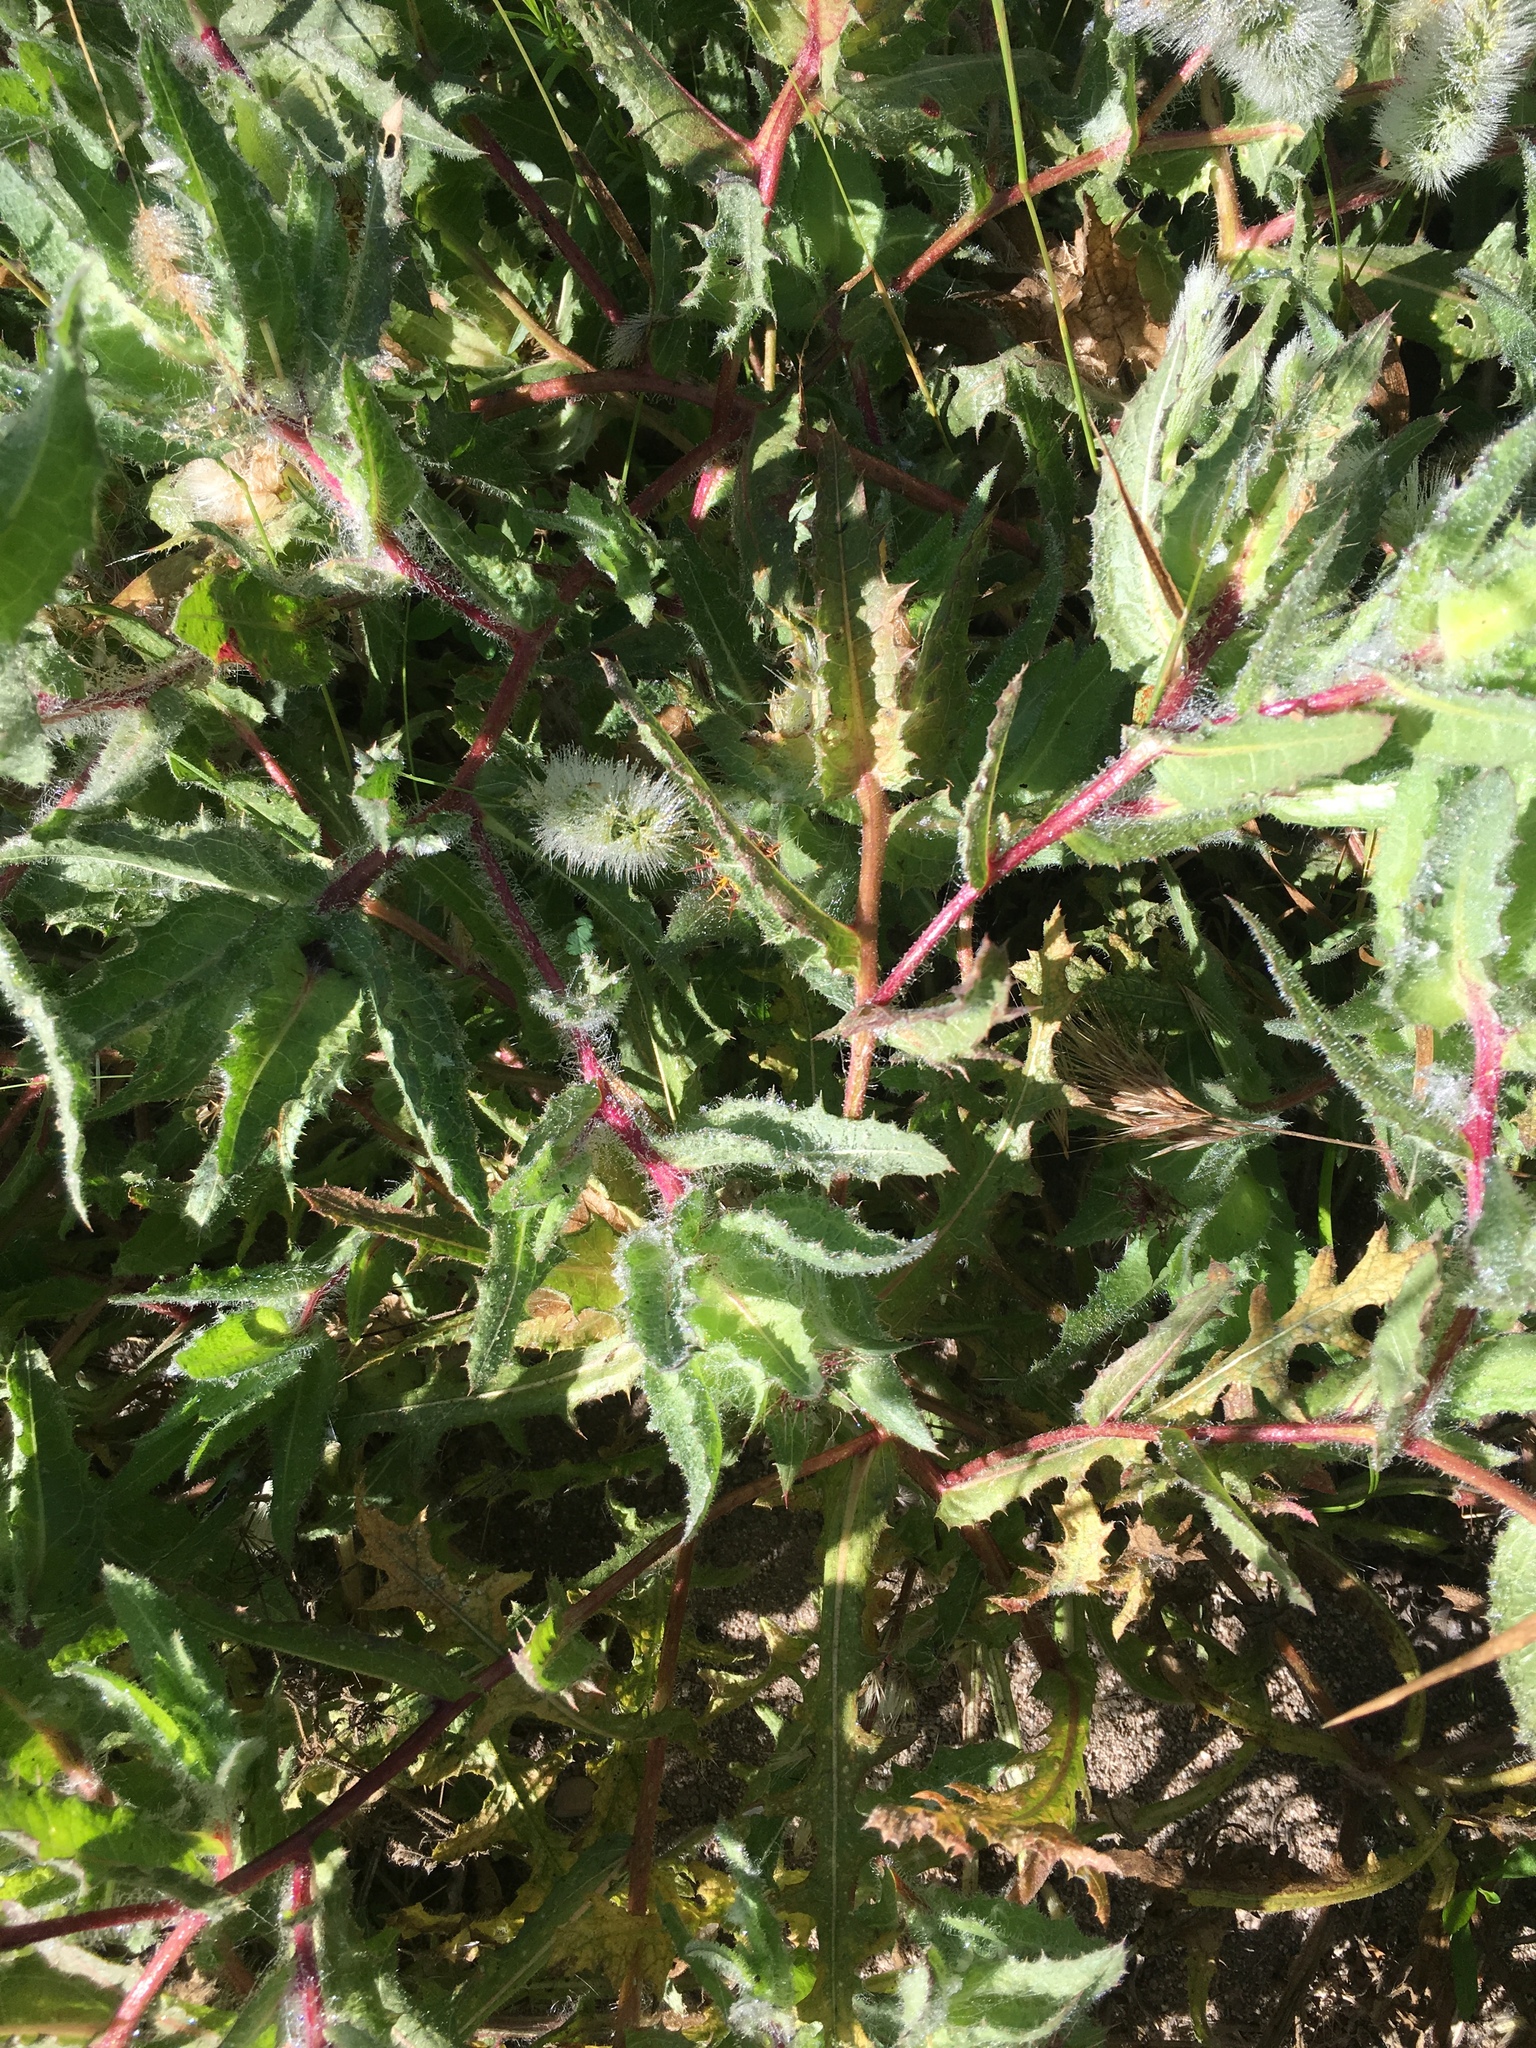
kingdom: Plantae
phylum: Tracheophyta
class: Magnoliopsida
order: Asterales
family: Asteraceae
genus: Centaurea
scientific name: Centaurea benedicta
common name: Blessed thistle
